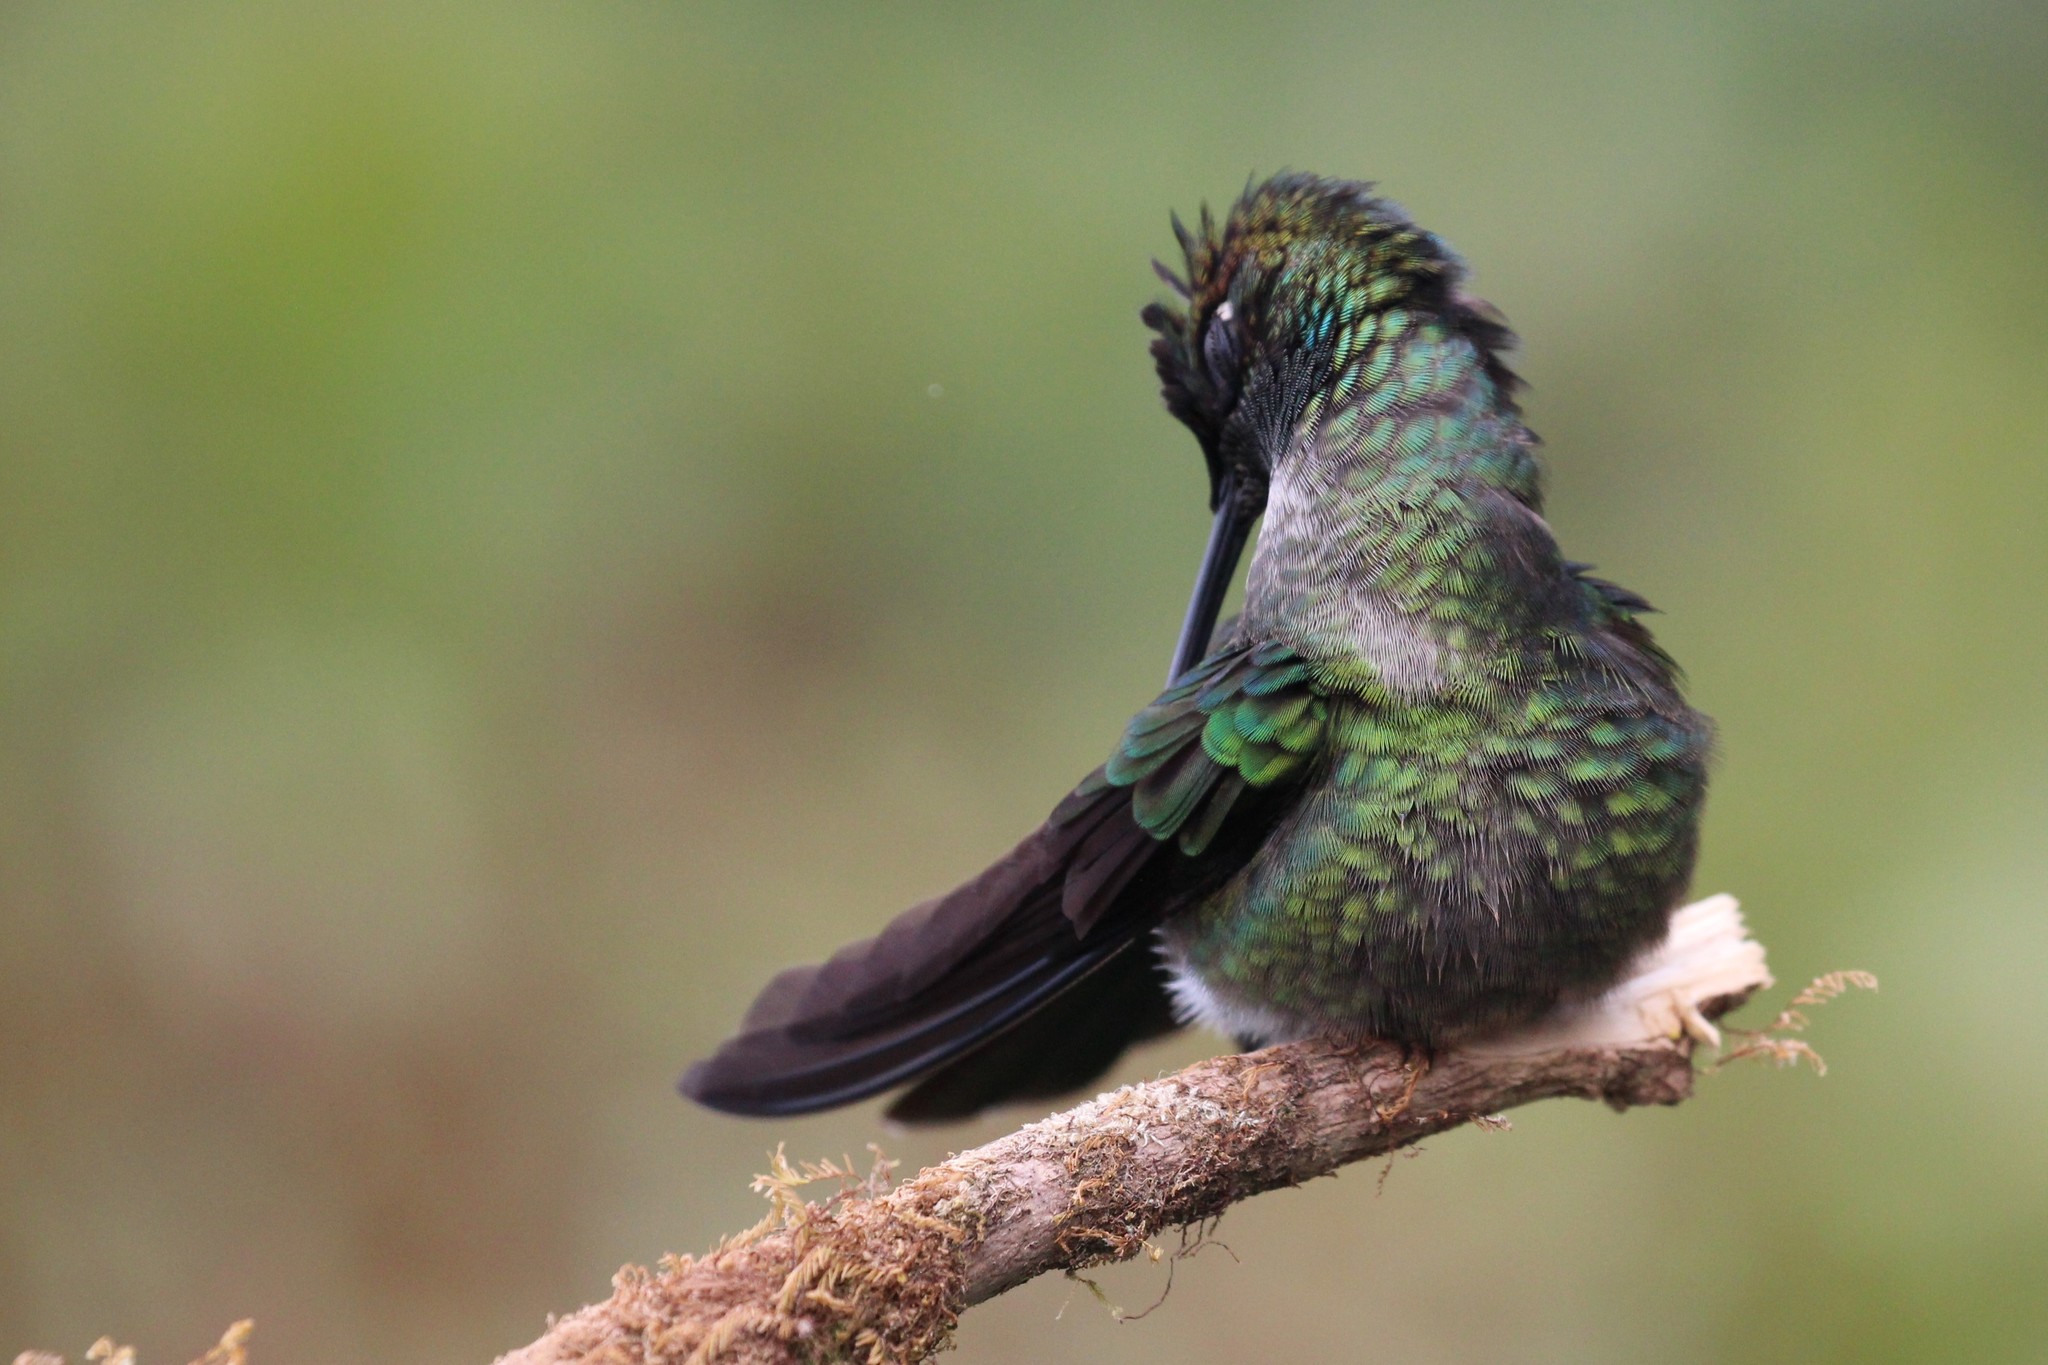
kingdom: Animalia
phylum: Chordata
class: Aves
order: Apodiformes
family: Trochilidae
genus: Eugenes
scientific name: Eugenes spectabilis
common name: Talamanca hummingbird
